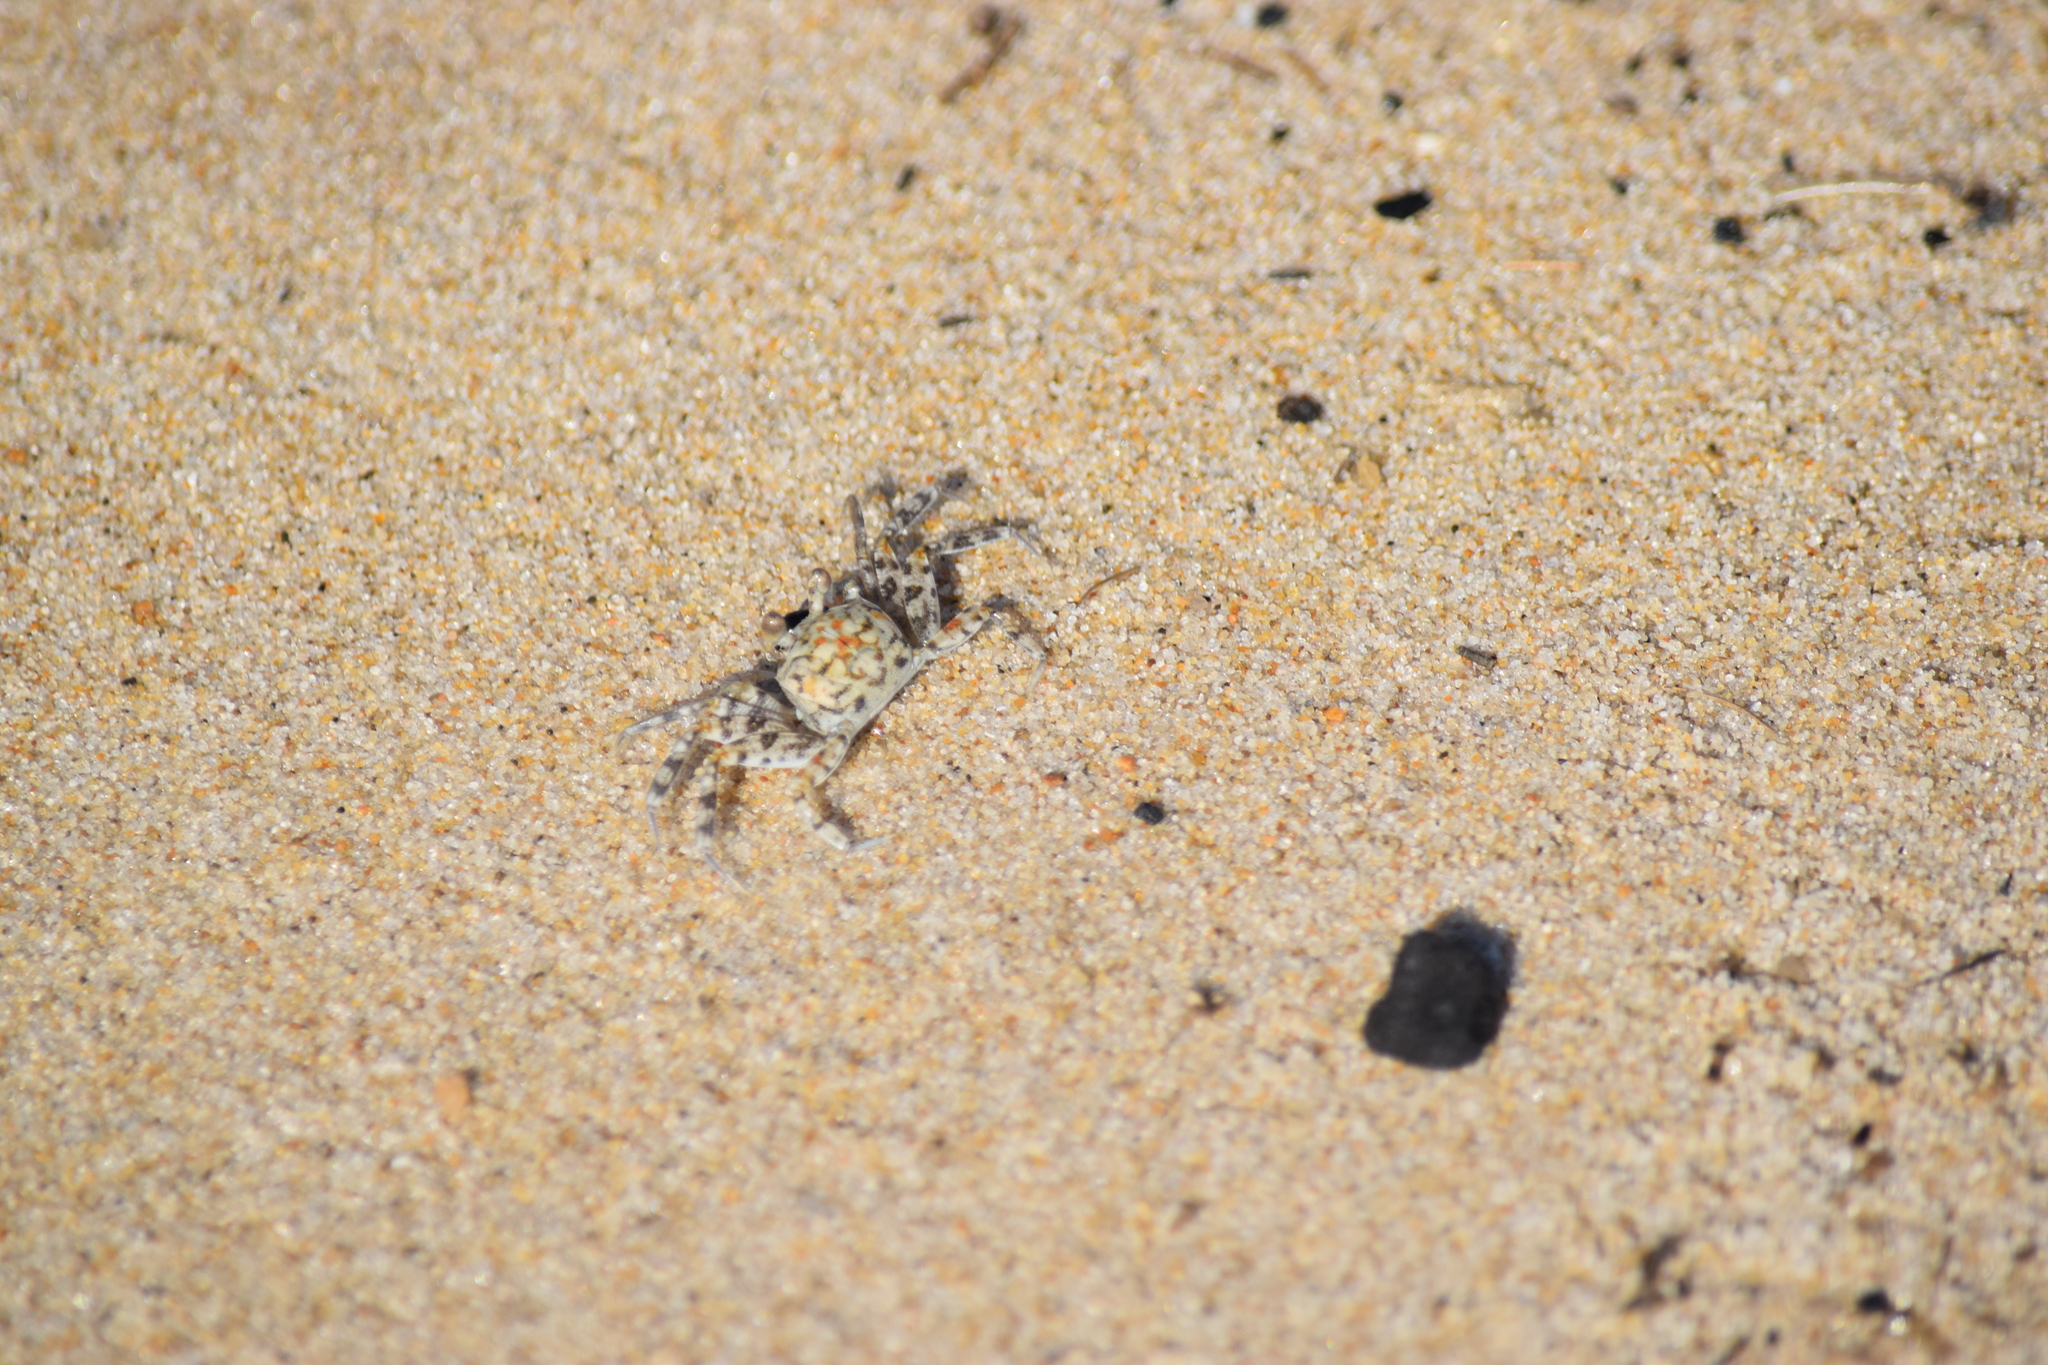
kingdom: Animalia
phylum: Arthropoda
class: Malacostraca
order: Decapoda
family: Ocypodidae
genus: Ocypode
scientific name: Ocypode quadrata
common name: Ghost crab
